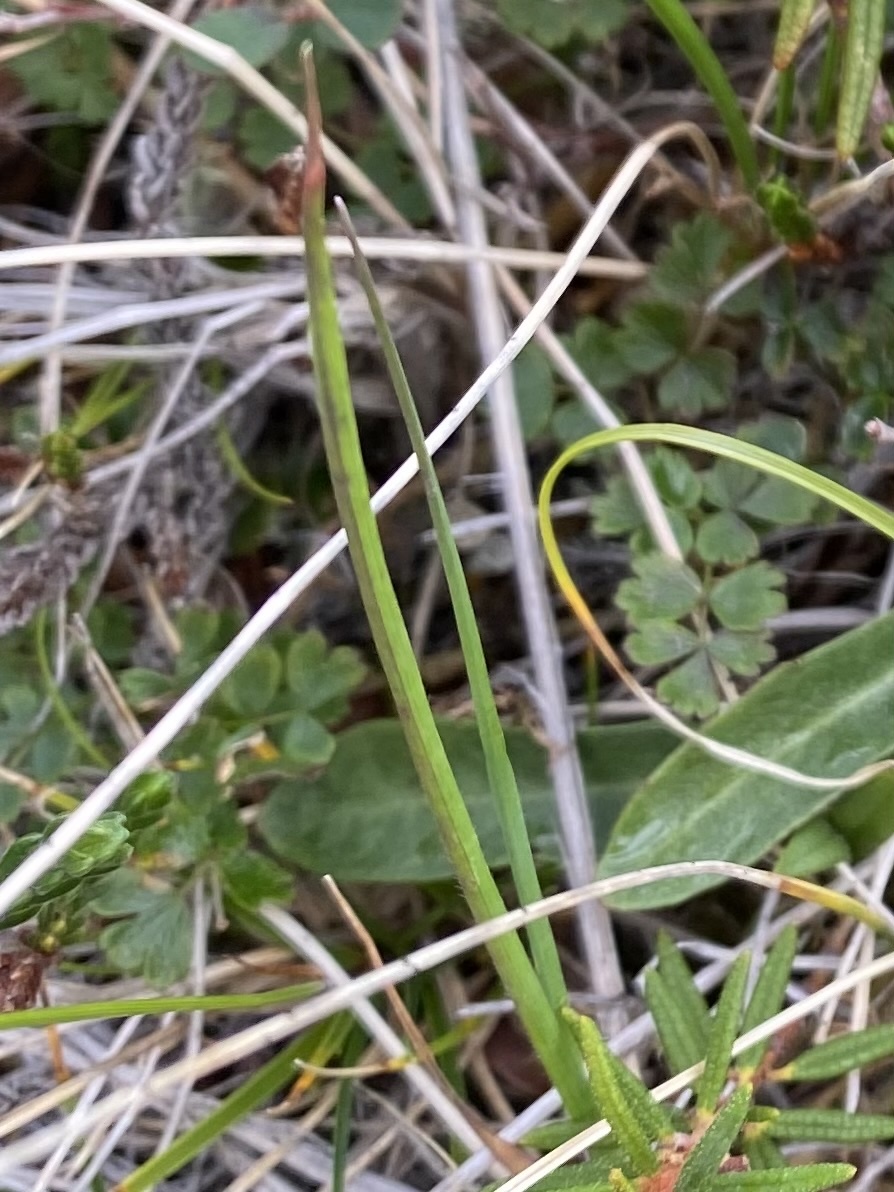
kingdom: Plantae
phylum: Tracheophyta
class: Magnoliopsida
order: Ranunculales
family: Ranunculaceae
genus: Thalictrum
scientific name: Thalictrum alpinum
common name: Alpine meadow-rue
